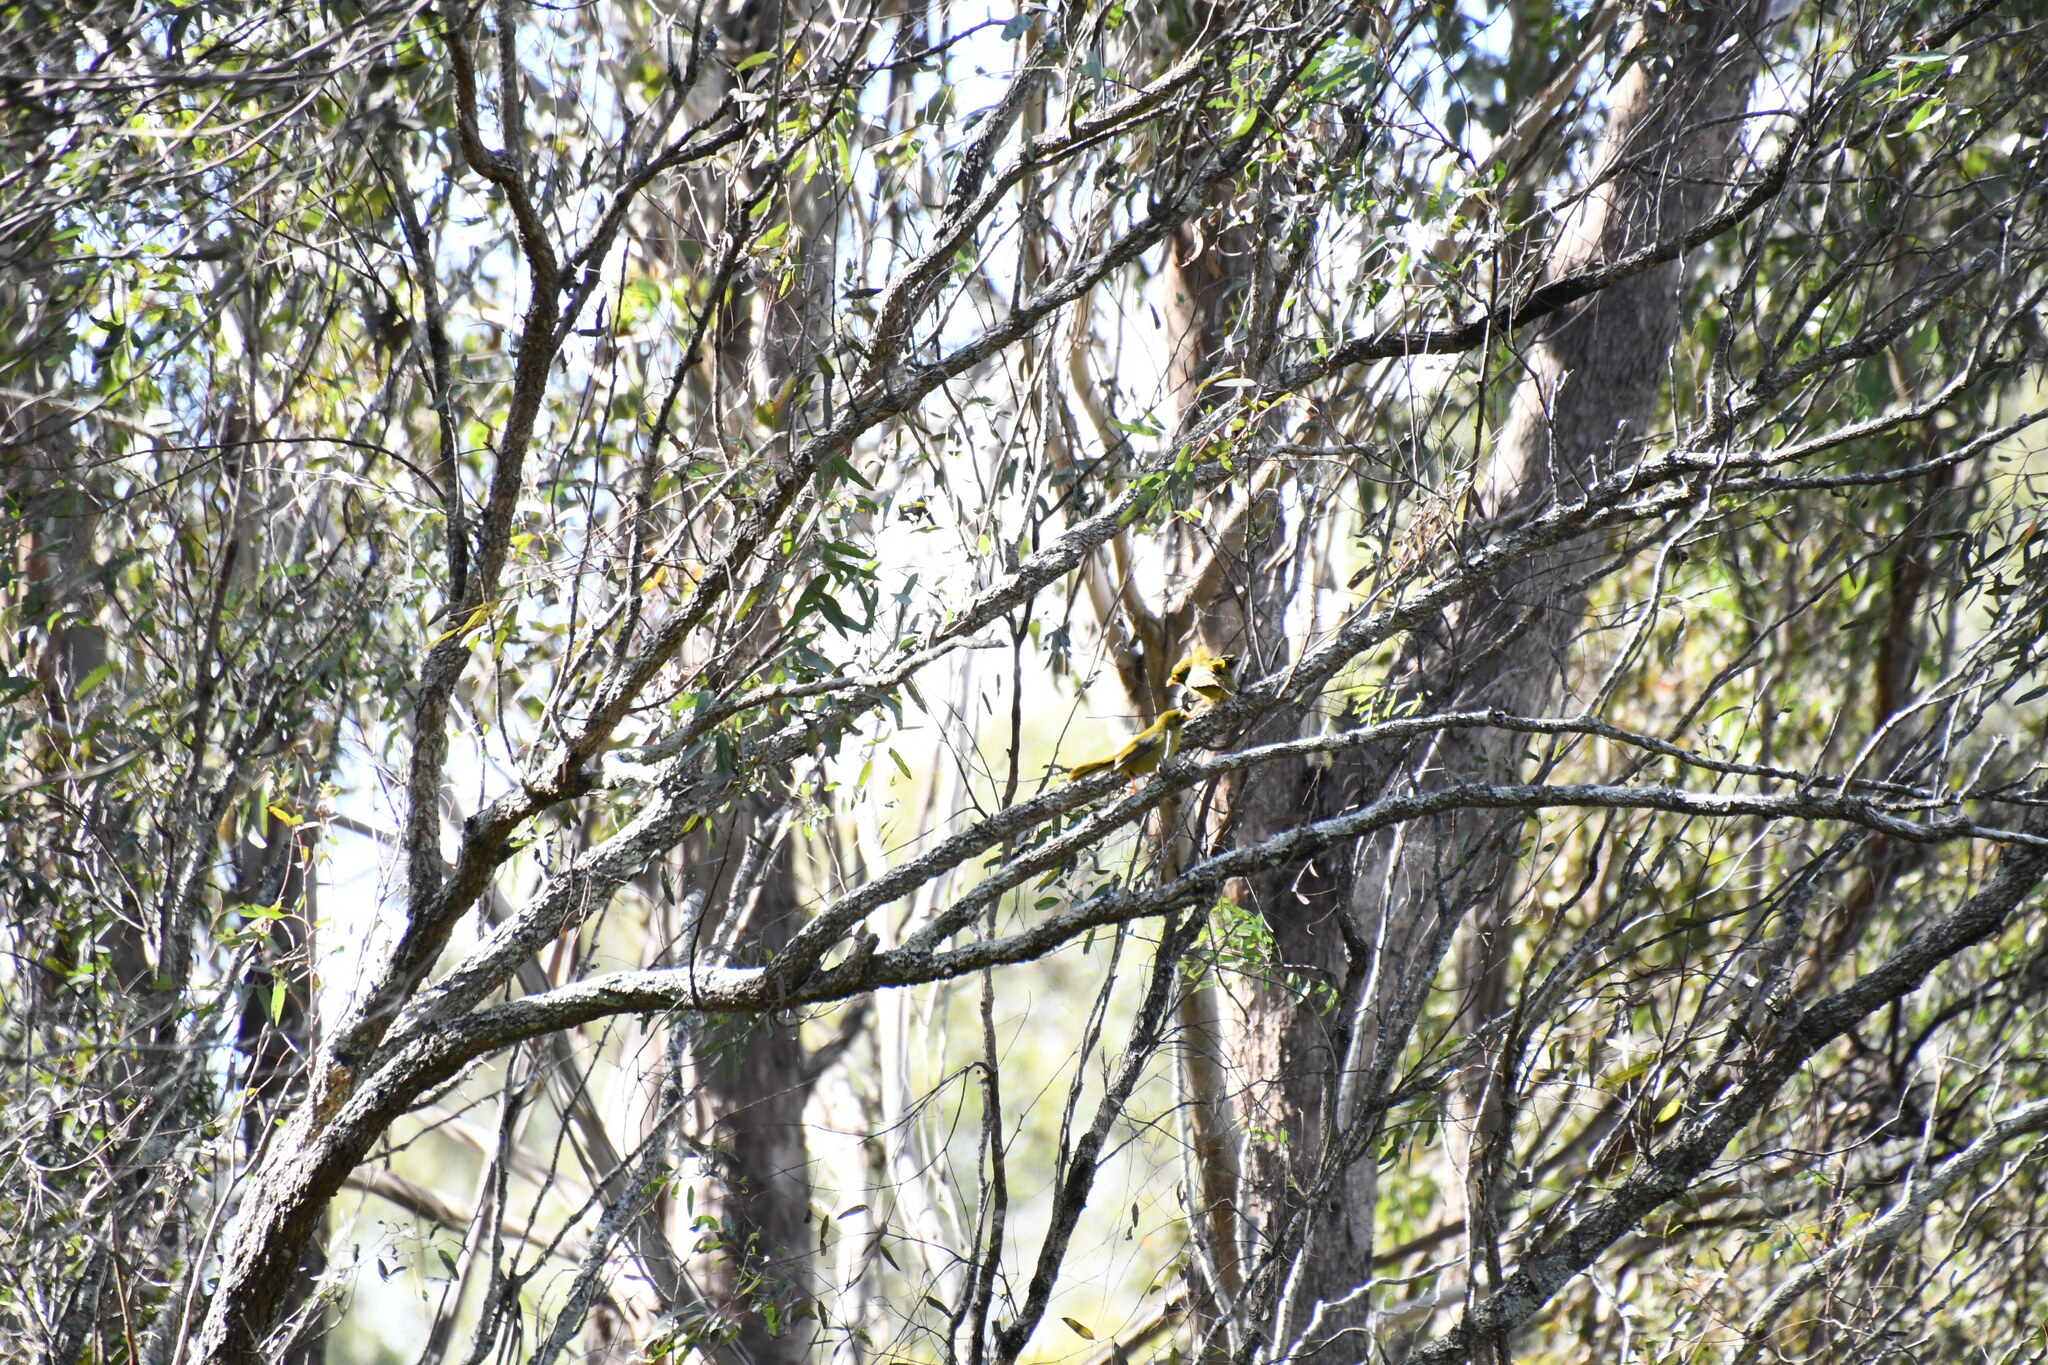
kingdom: Animalia
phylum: Chordata
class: Aves
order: Passeriformes
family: Meliphagidae
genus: Manorina
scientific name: Manorina melanophrys
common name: Bell miner
